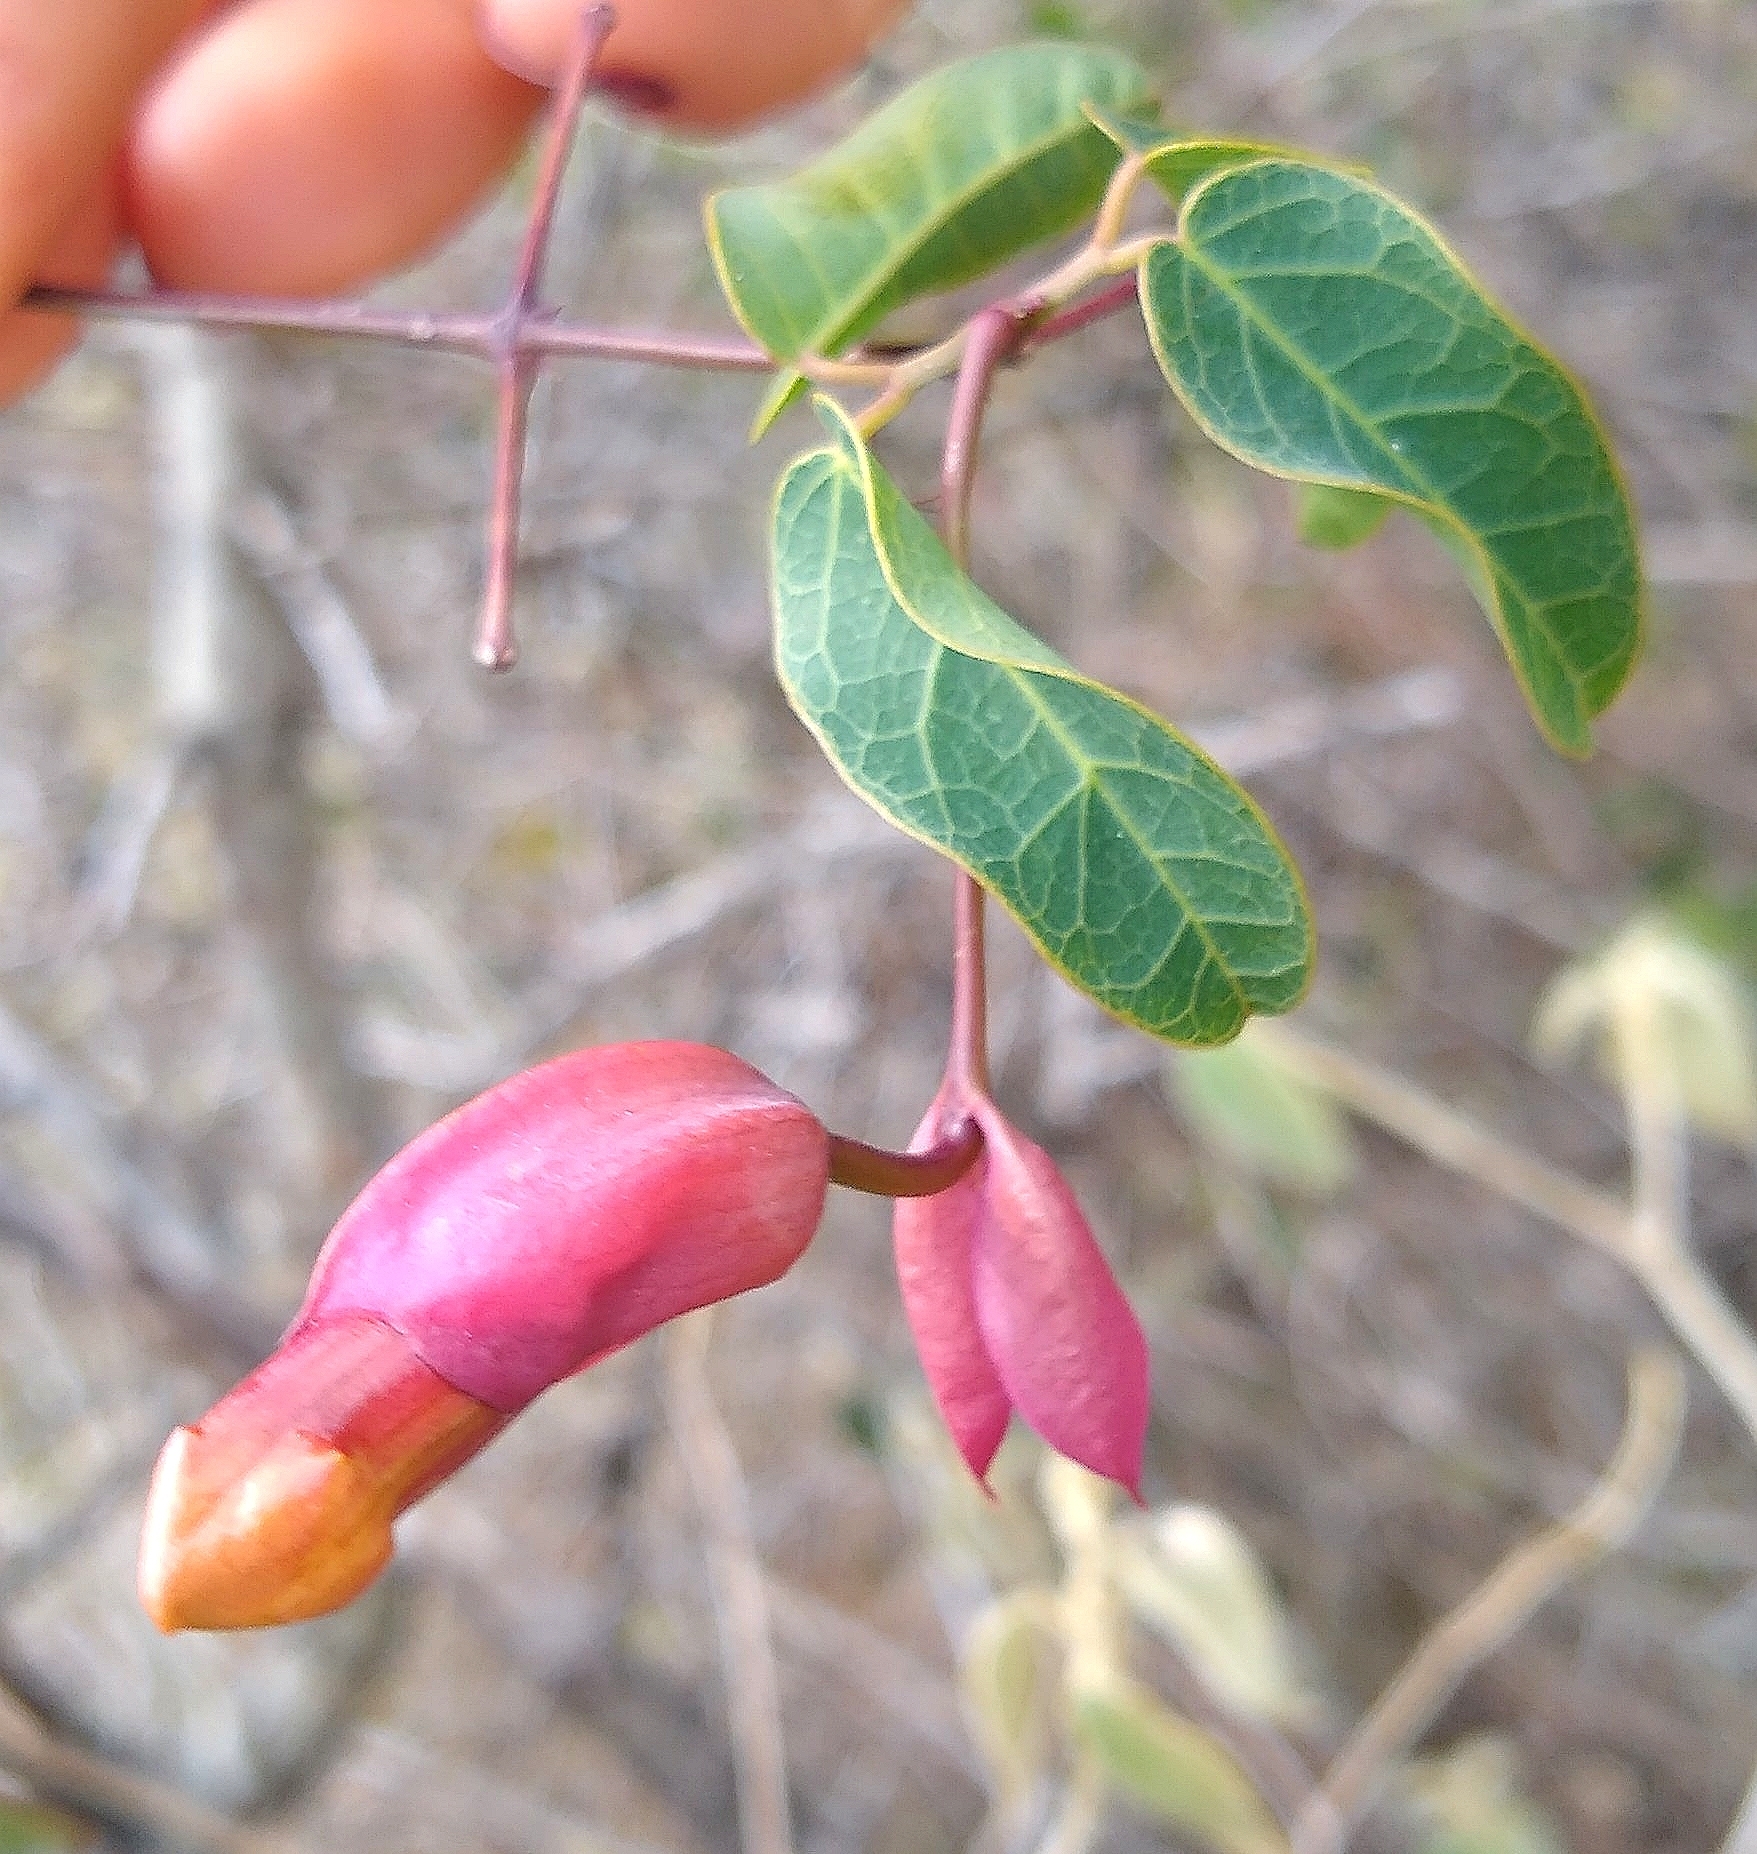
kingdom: Plantae
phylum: Tracheophyta
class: Magnoliopsida
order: Lamiales
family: Bignoniaceae
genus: Dolichandra
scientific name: Dolichandra cynanchoides
